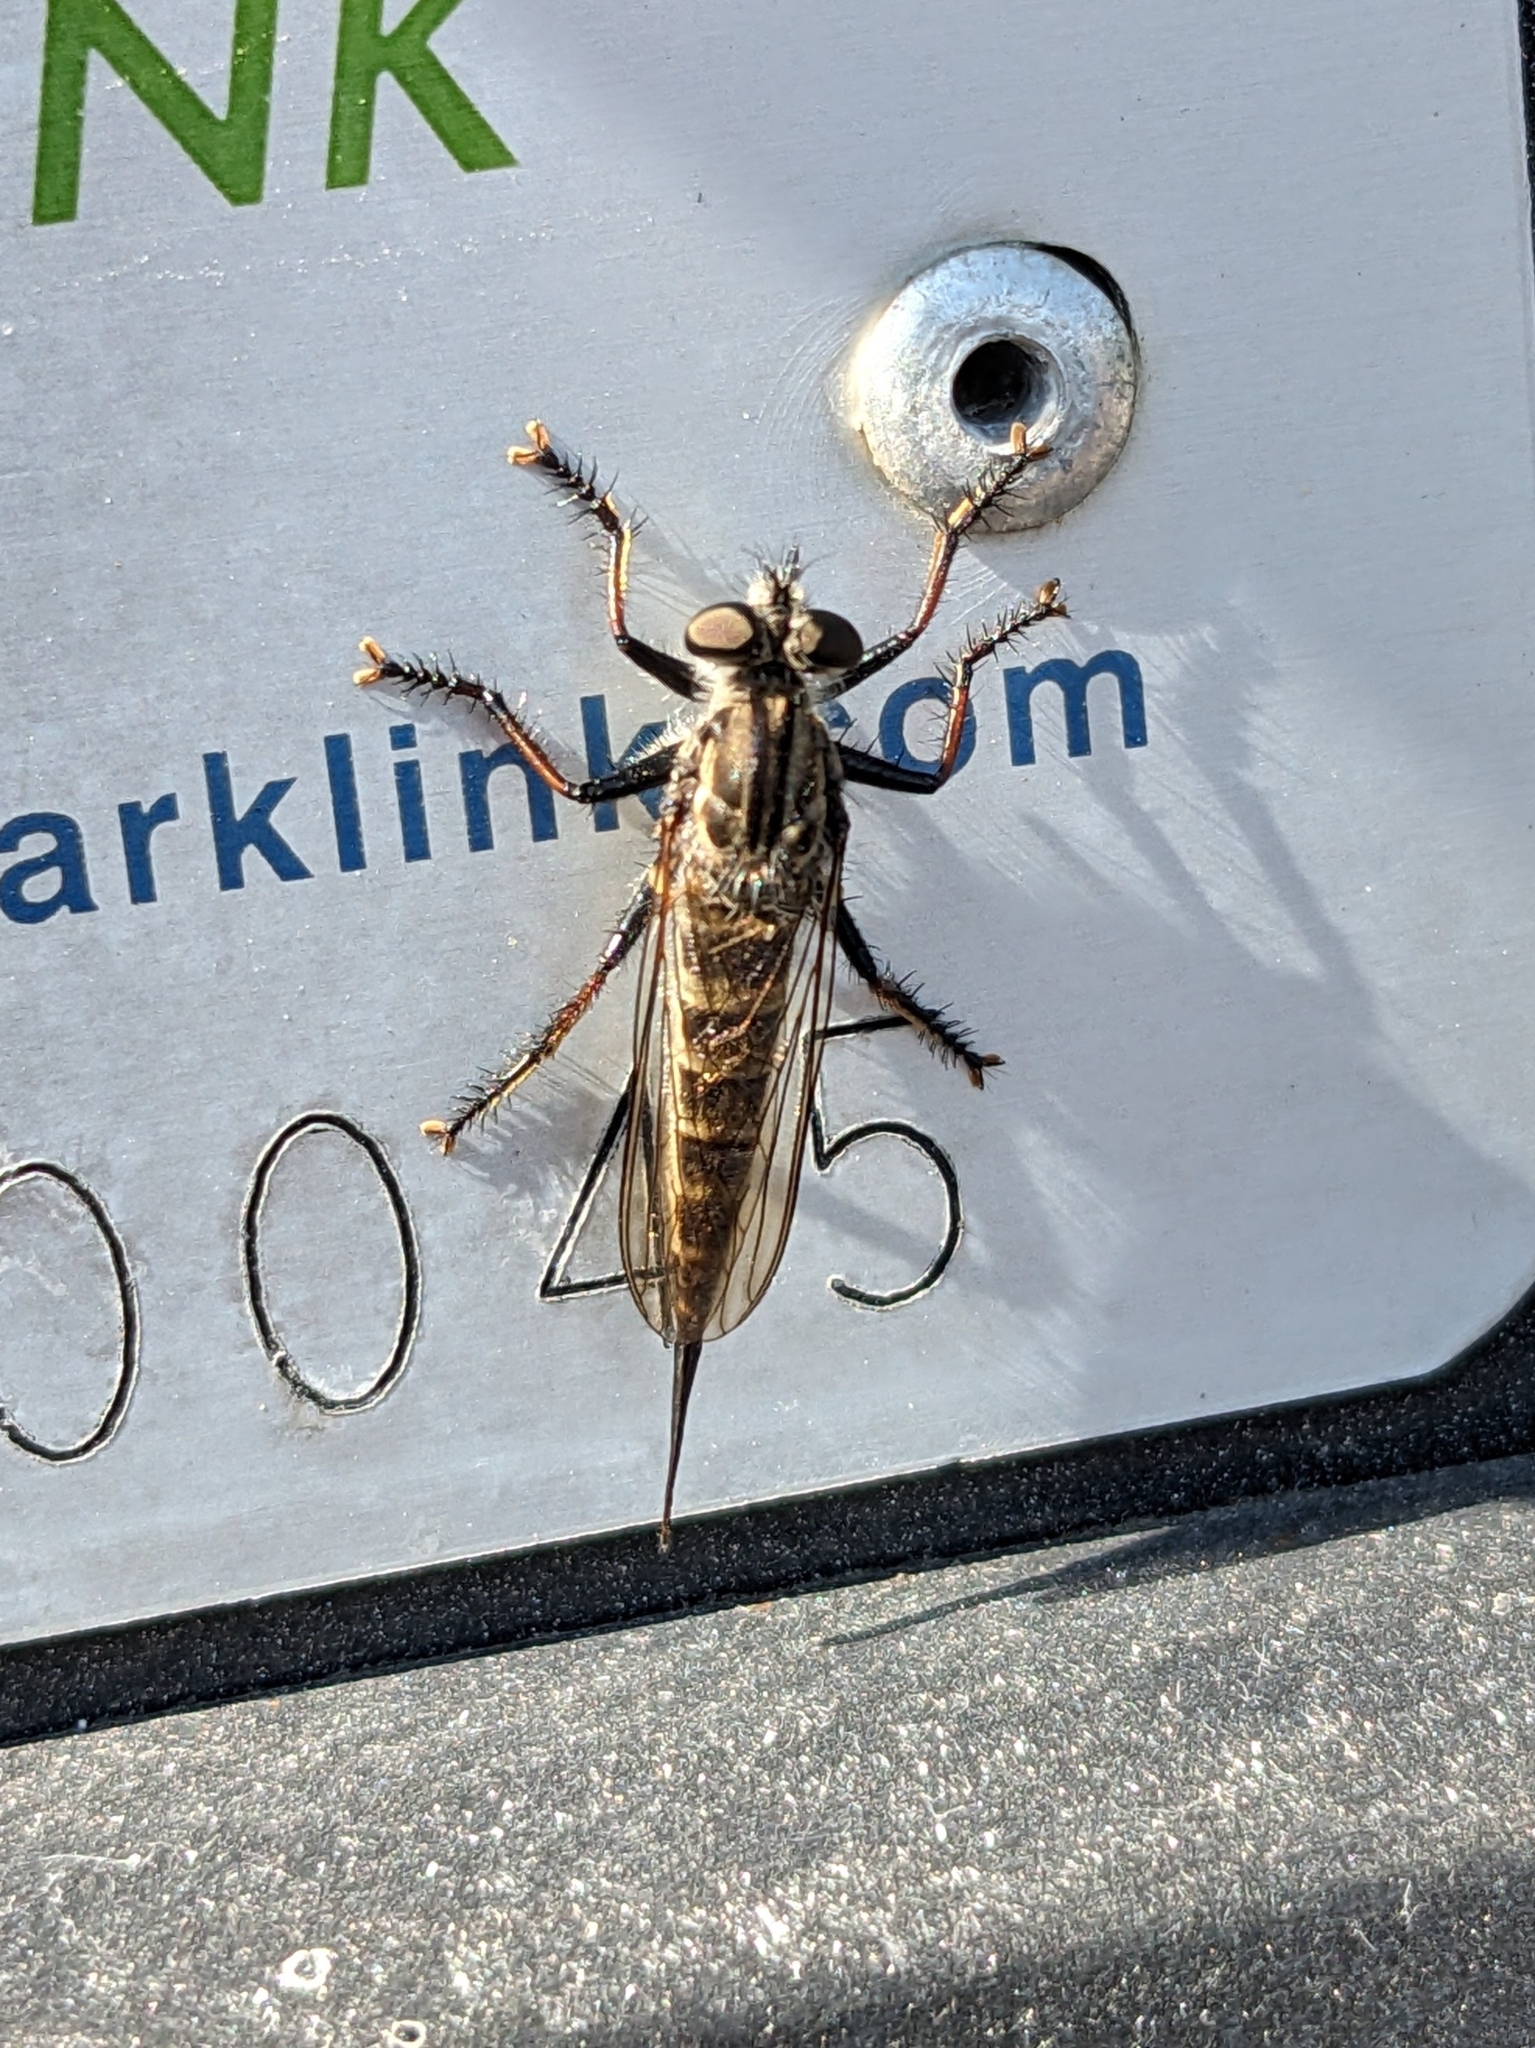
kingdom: Animalia
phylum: Arthropoda
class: Insecta
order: Diptera
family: Asilidae
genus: Efferia
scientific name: Efferia aestuans
